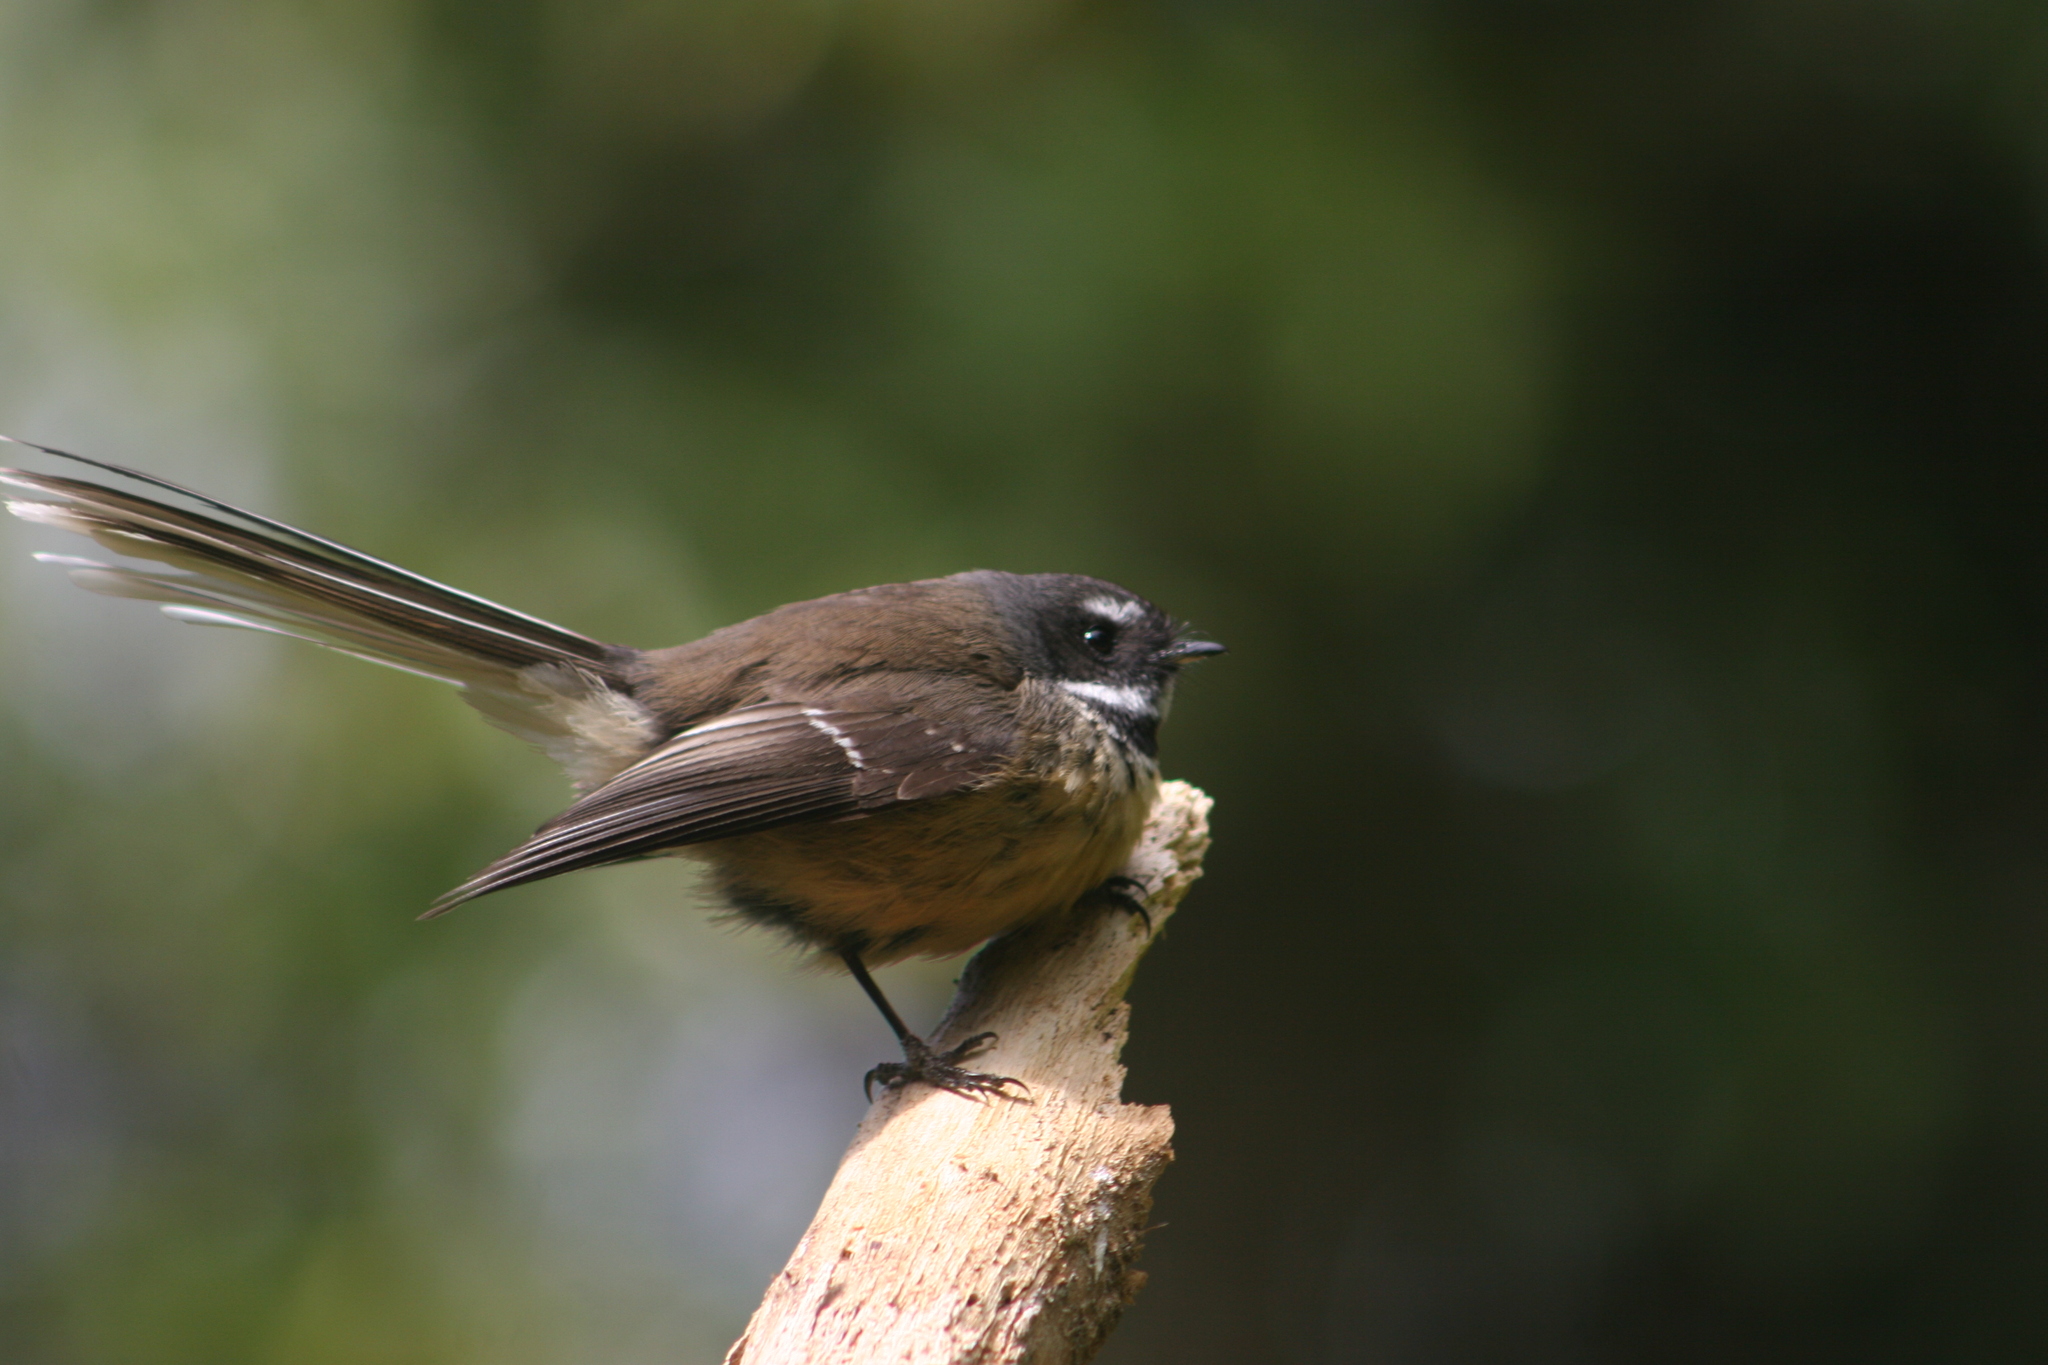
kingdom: Animalia
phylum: Chordata
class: Aves
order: Passeriformes
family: Rhipiduridae
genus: Rhipidura
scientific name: Rhipidura fuliginosa
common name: New zealand fantail
